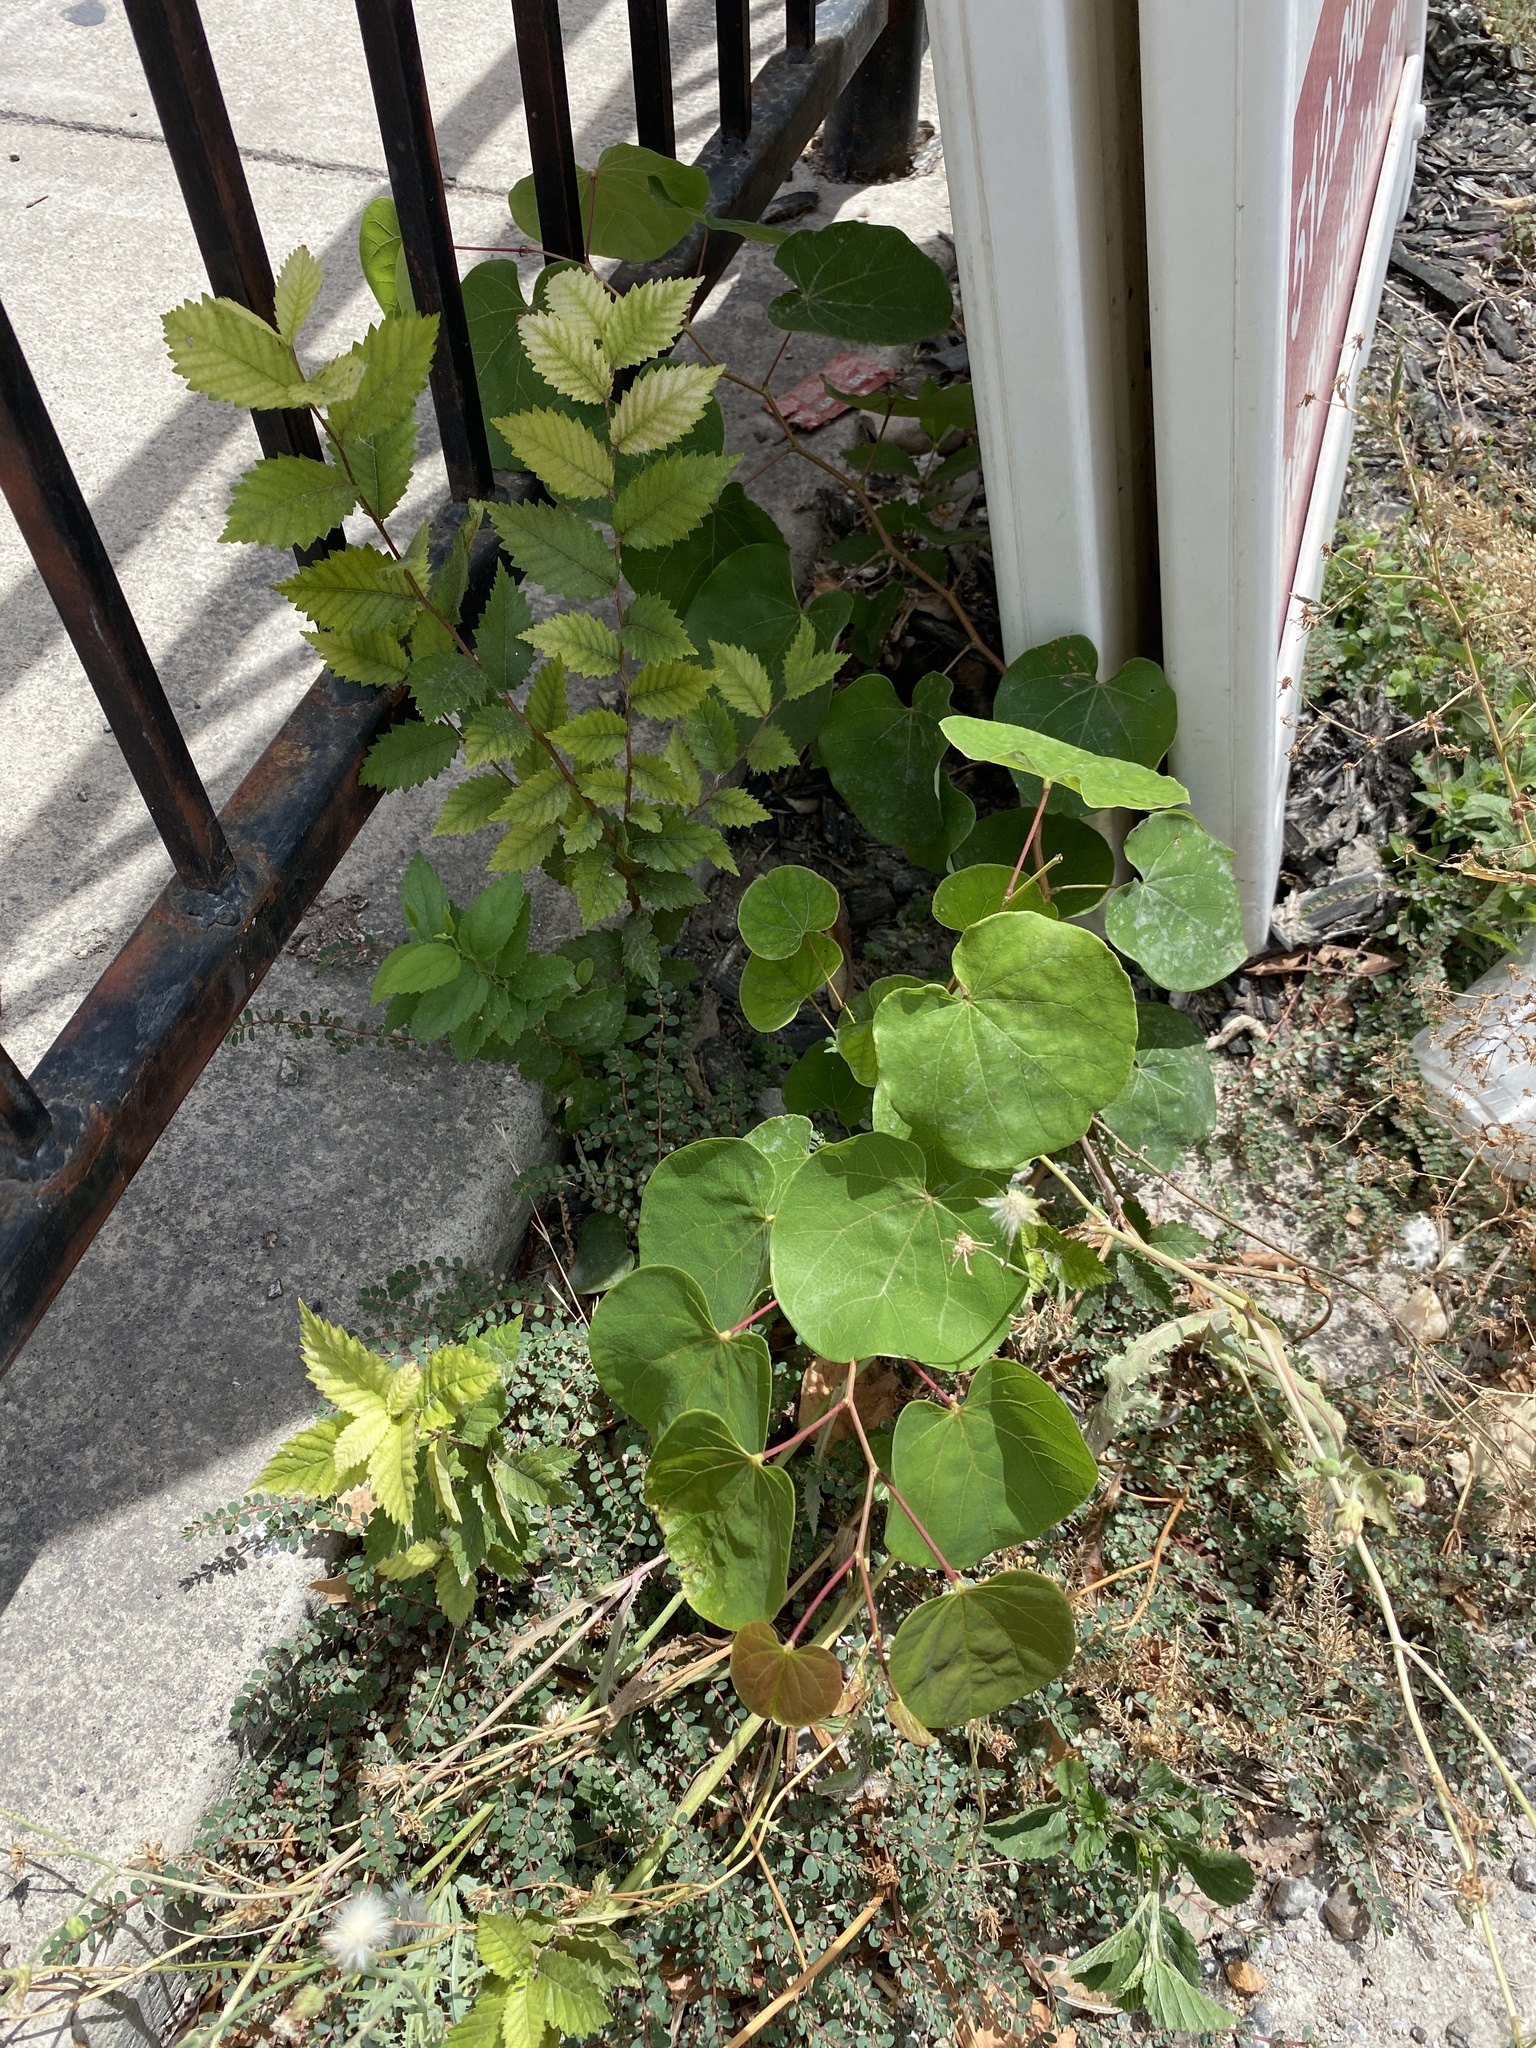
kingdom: Plantae
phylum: Tracheophyta
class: Magnoliopsida
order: Fabales
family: Fabaceae
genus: Cercis
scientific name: Cercis canadensis
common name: Eastern redbud
